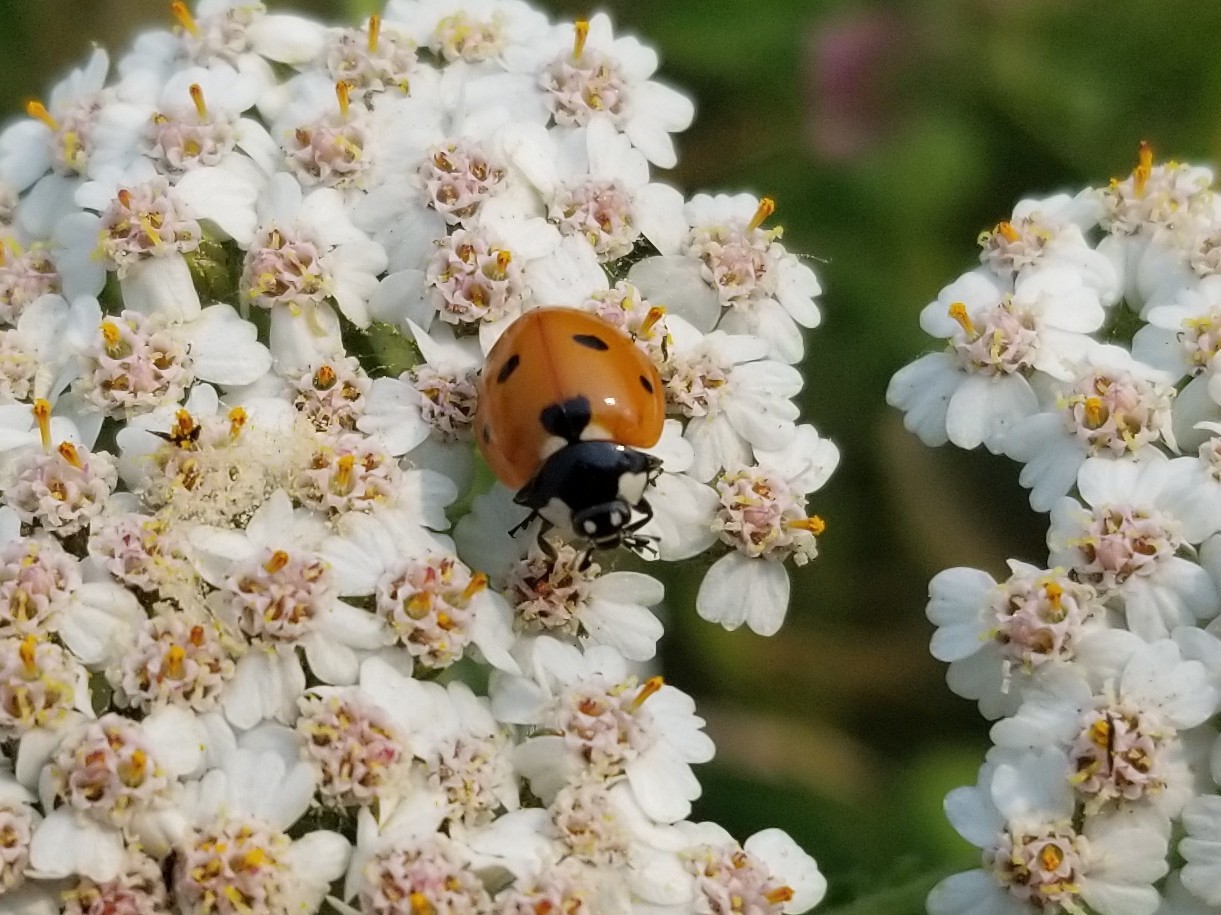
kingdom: Animalia
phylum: Arthropoda
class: Insecta
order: Coleoptera
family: Coccinellidae
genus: Coccinella
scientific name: Coccinella septempunctata
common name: Sevenspotted lady beetle
